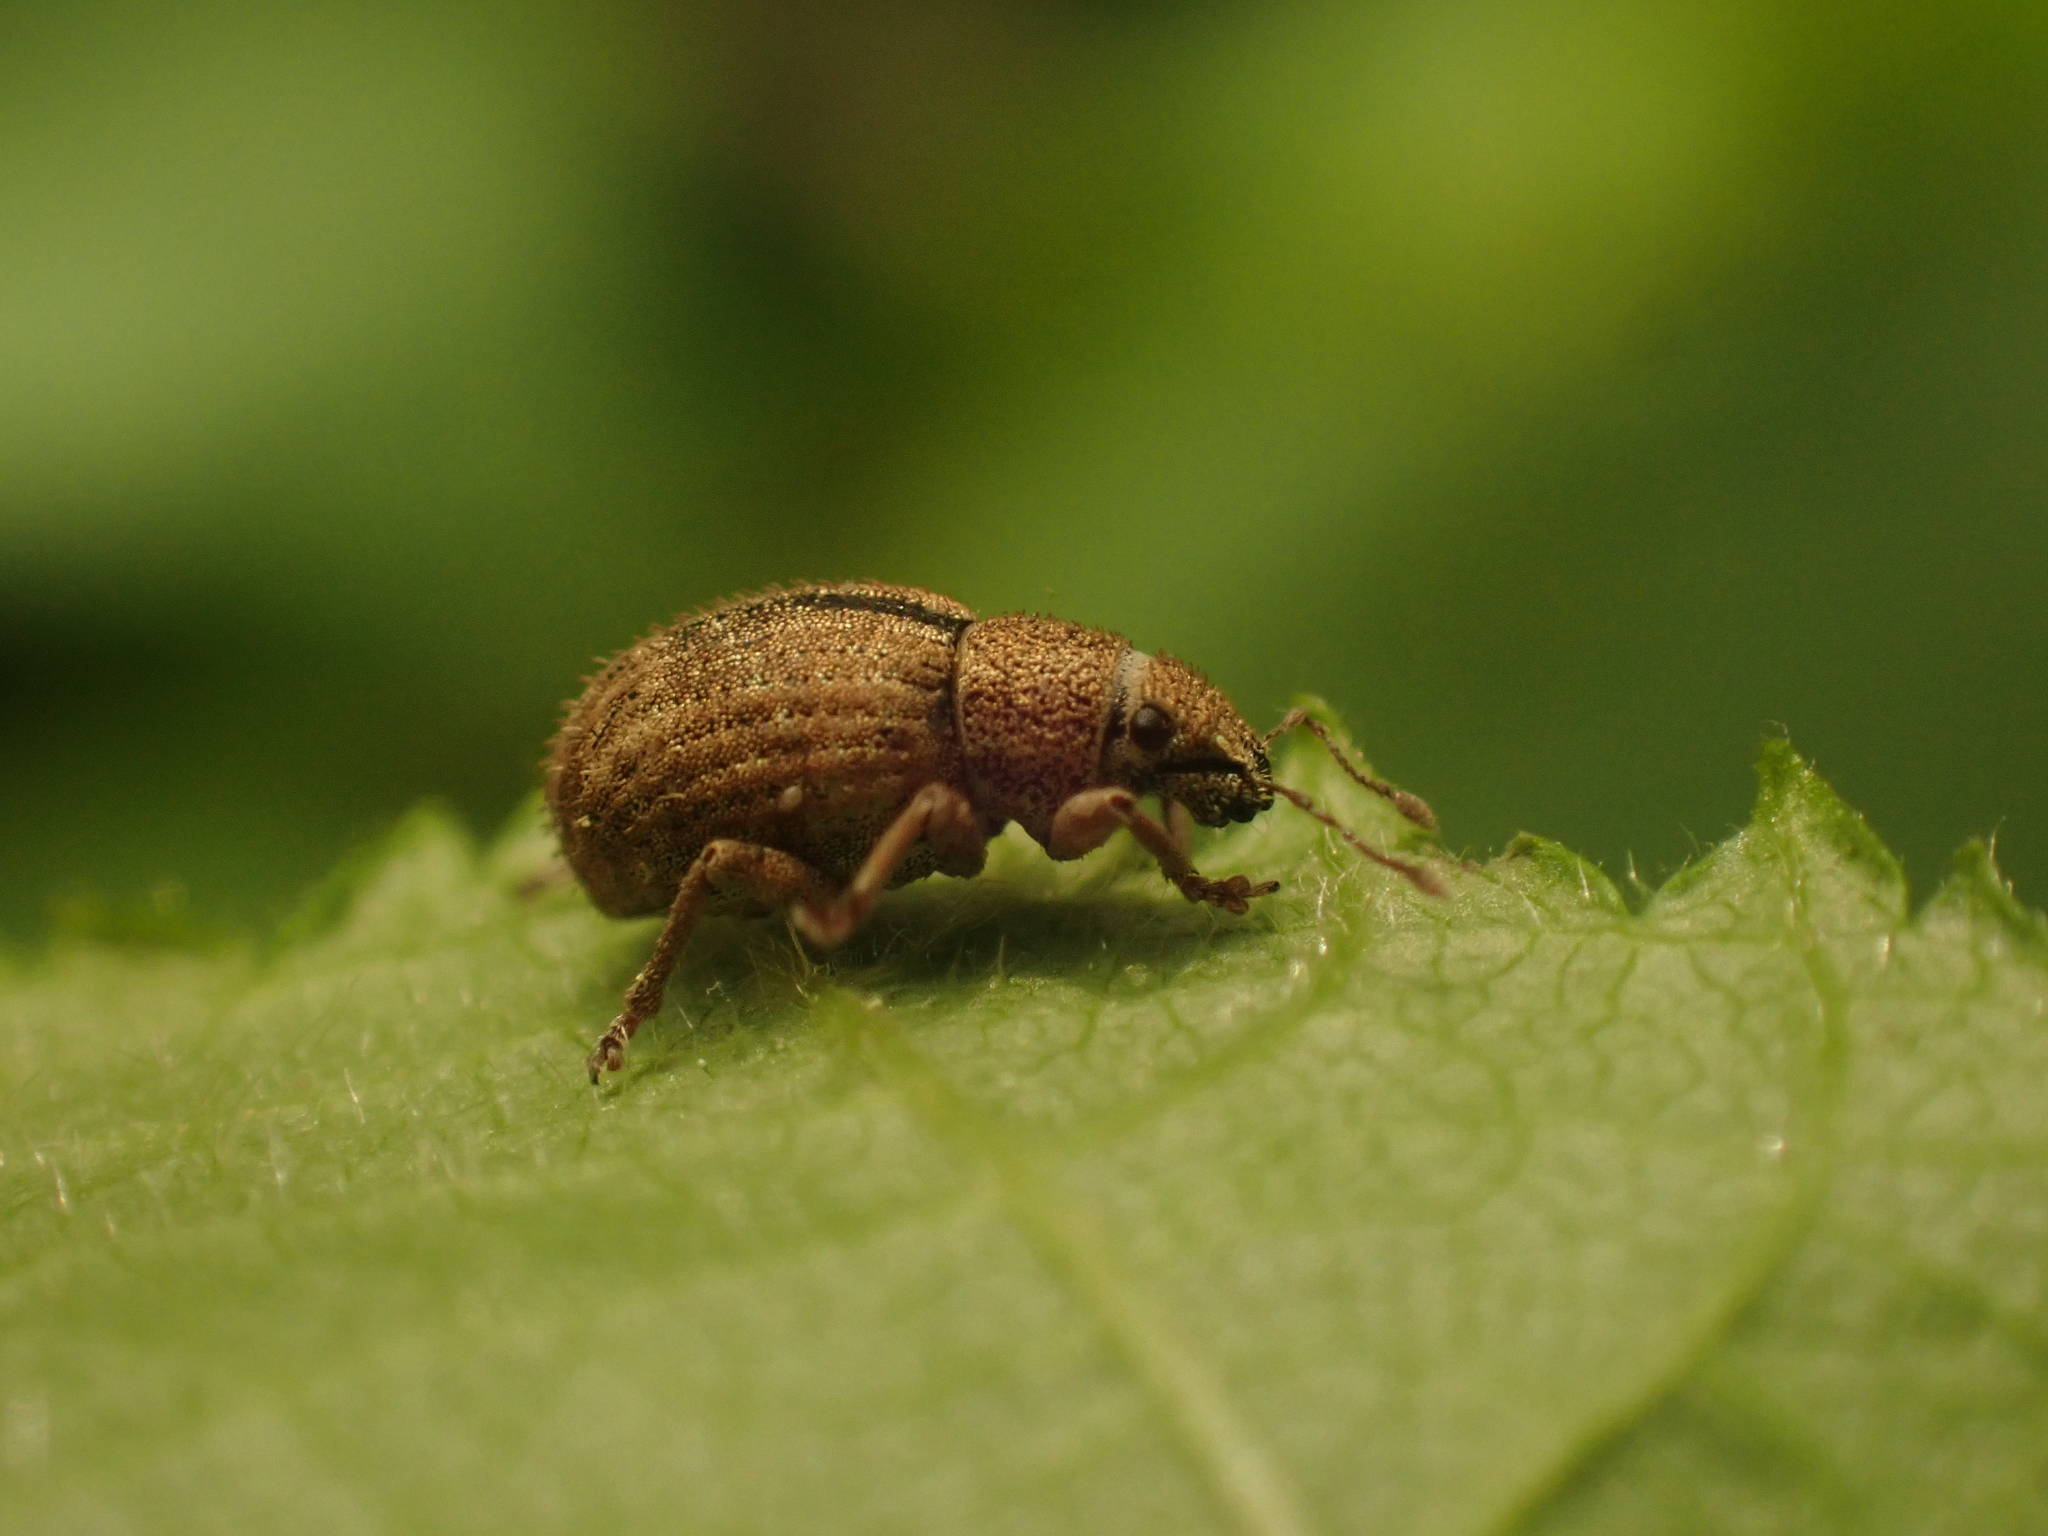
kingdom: Animalia
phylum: Arthropoda
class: Insecta
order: Coleoptera
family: Curculionidae
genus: Strophosoma
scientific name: Strophosoma melanogrammum
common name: Weevil
